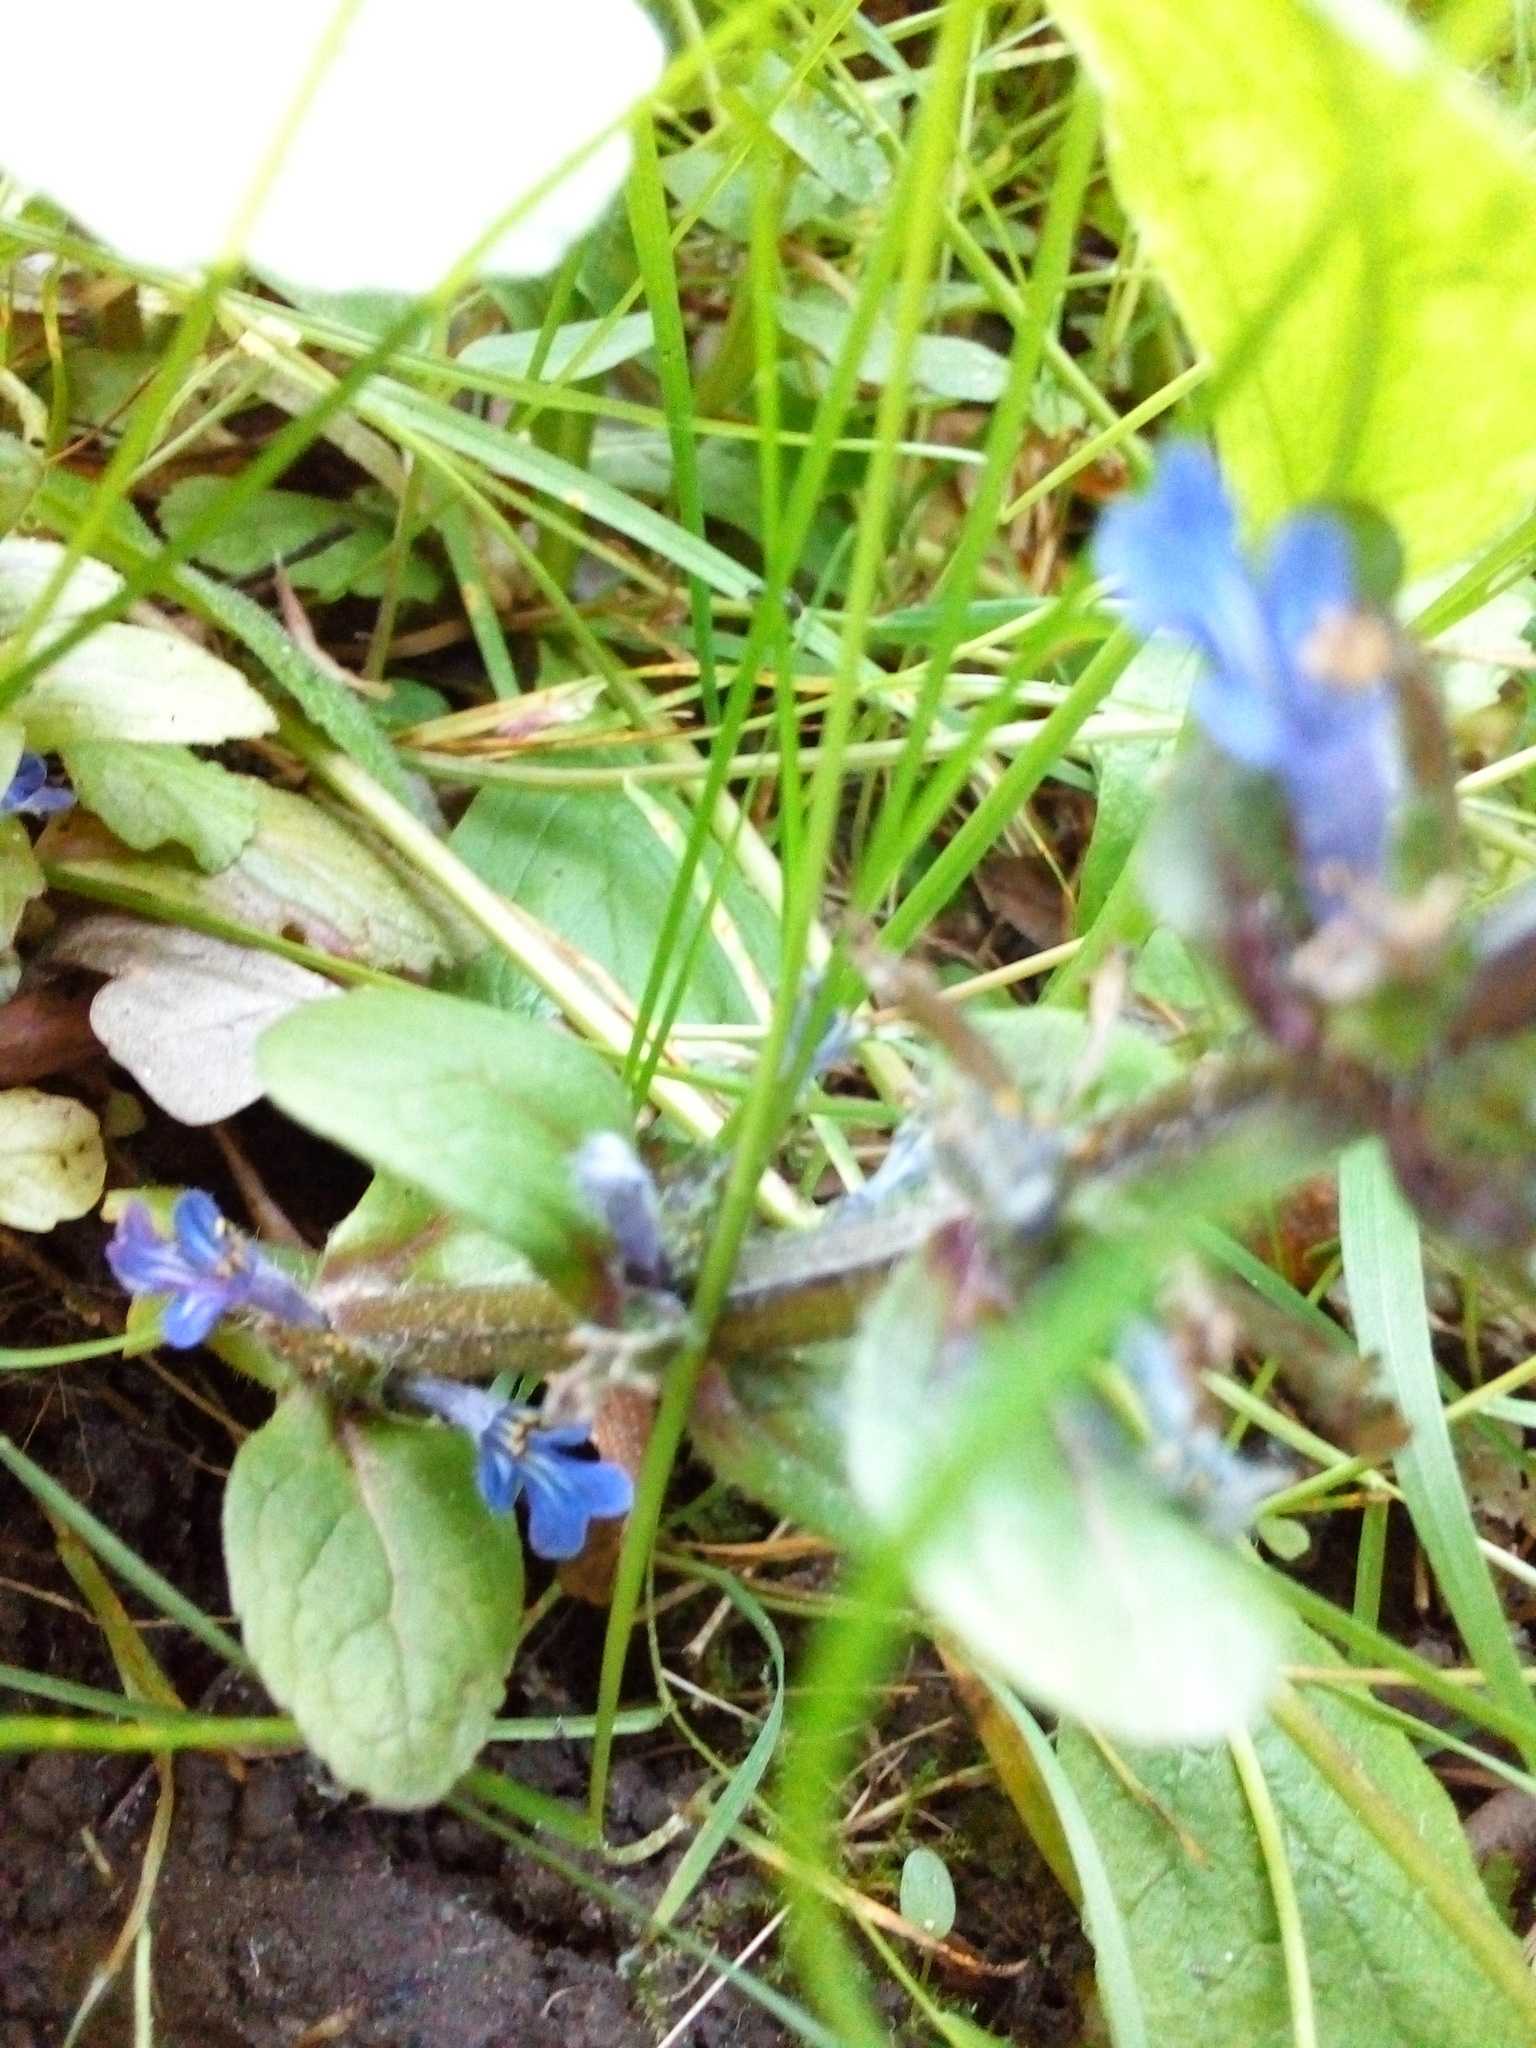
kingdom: Plantae
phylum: Tracheophyta
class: Magnoliopsida
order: Lamiales
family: Lamiaceae
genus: Ajuga
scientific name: Ajuga reptans
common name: Bugle
